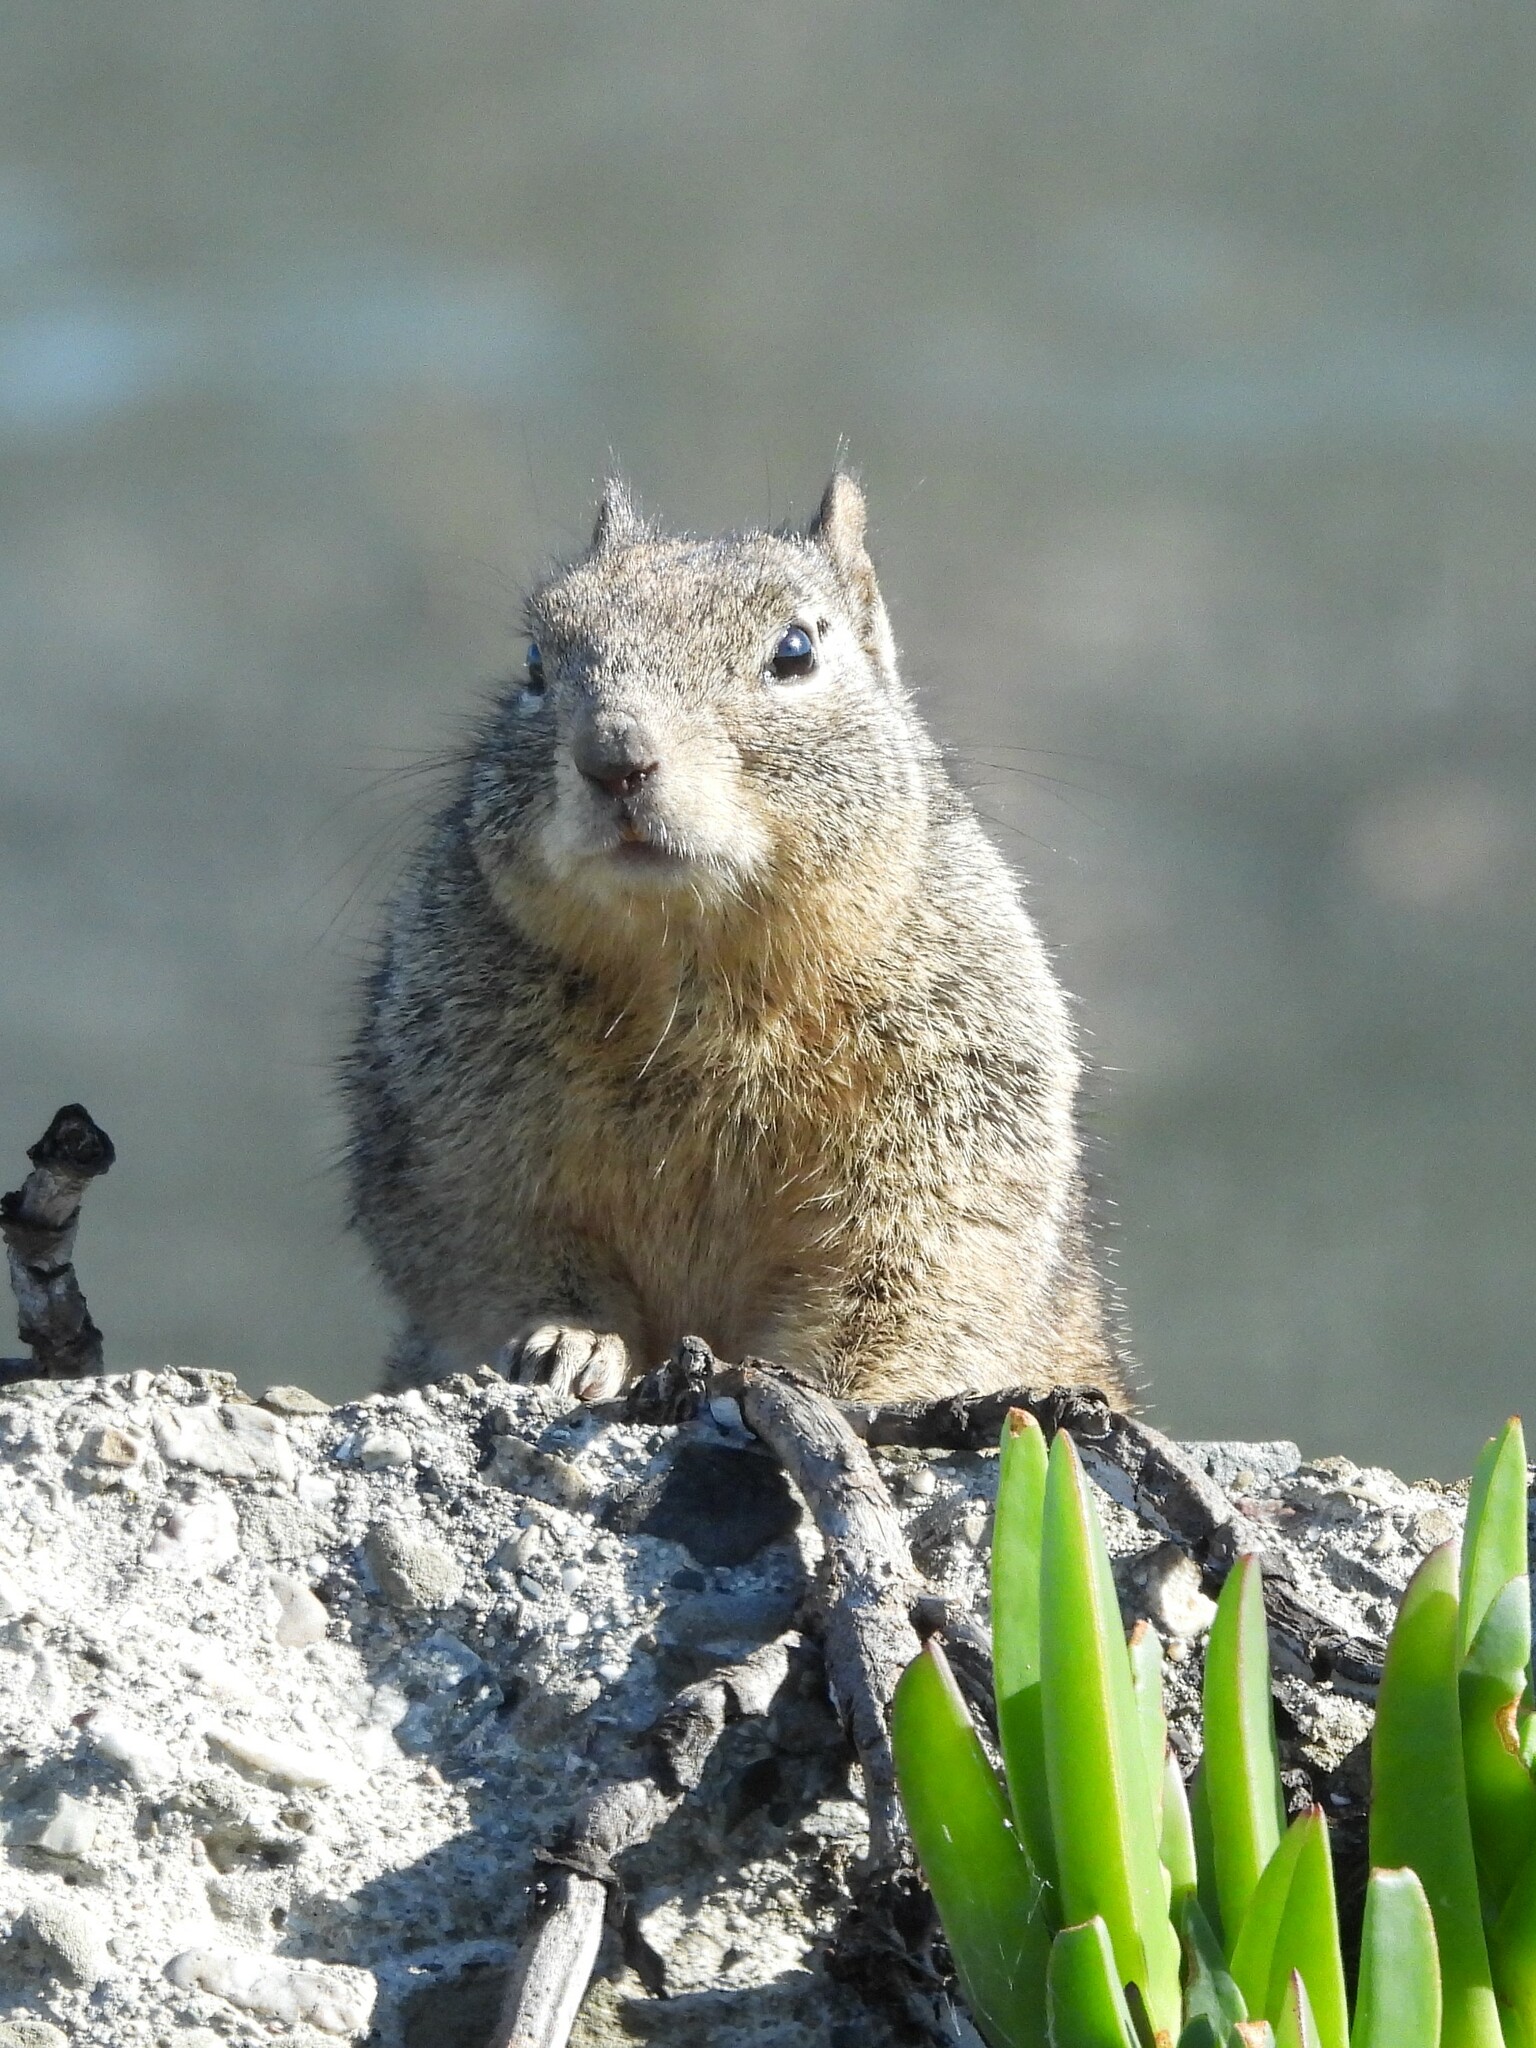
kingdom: Animalia
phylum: Chordata
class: Mammalia
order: Rodentia
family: Sciuridae
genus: Otospermophilus
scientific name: Otospermophilus beecheyi
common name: California ground squirrel
